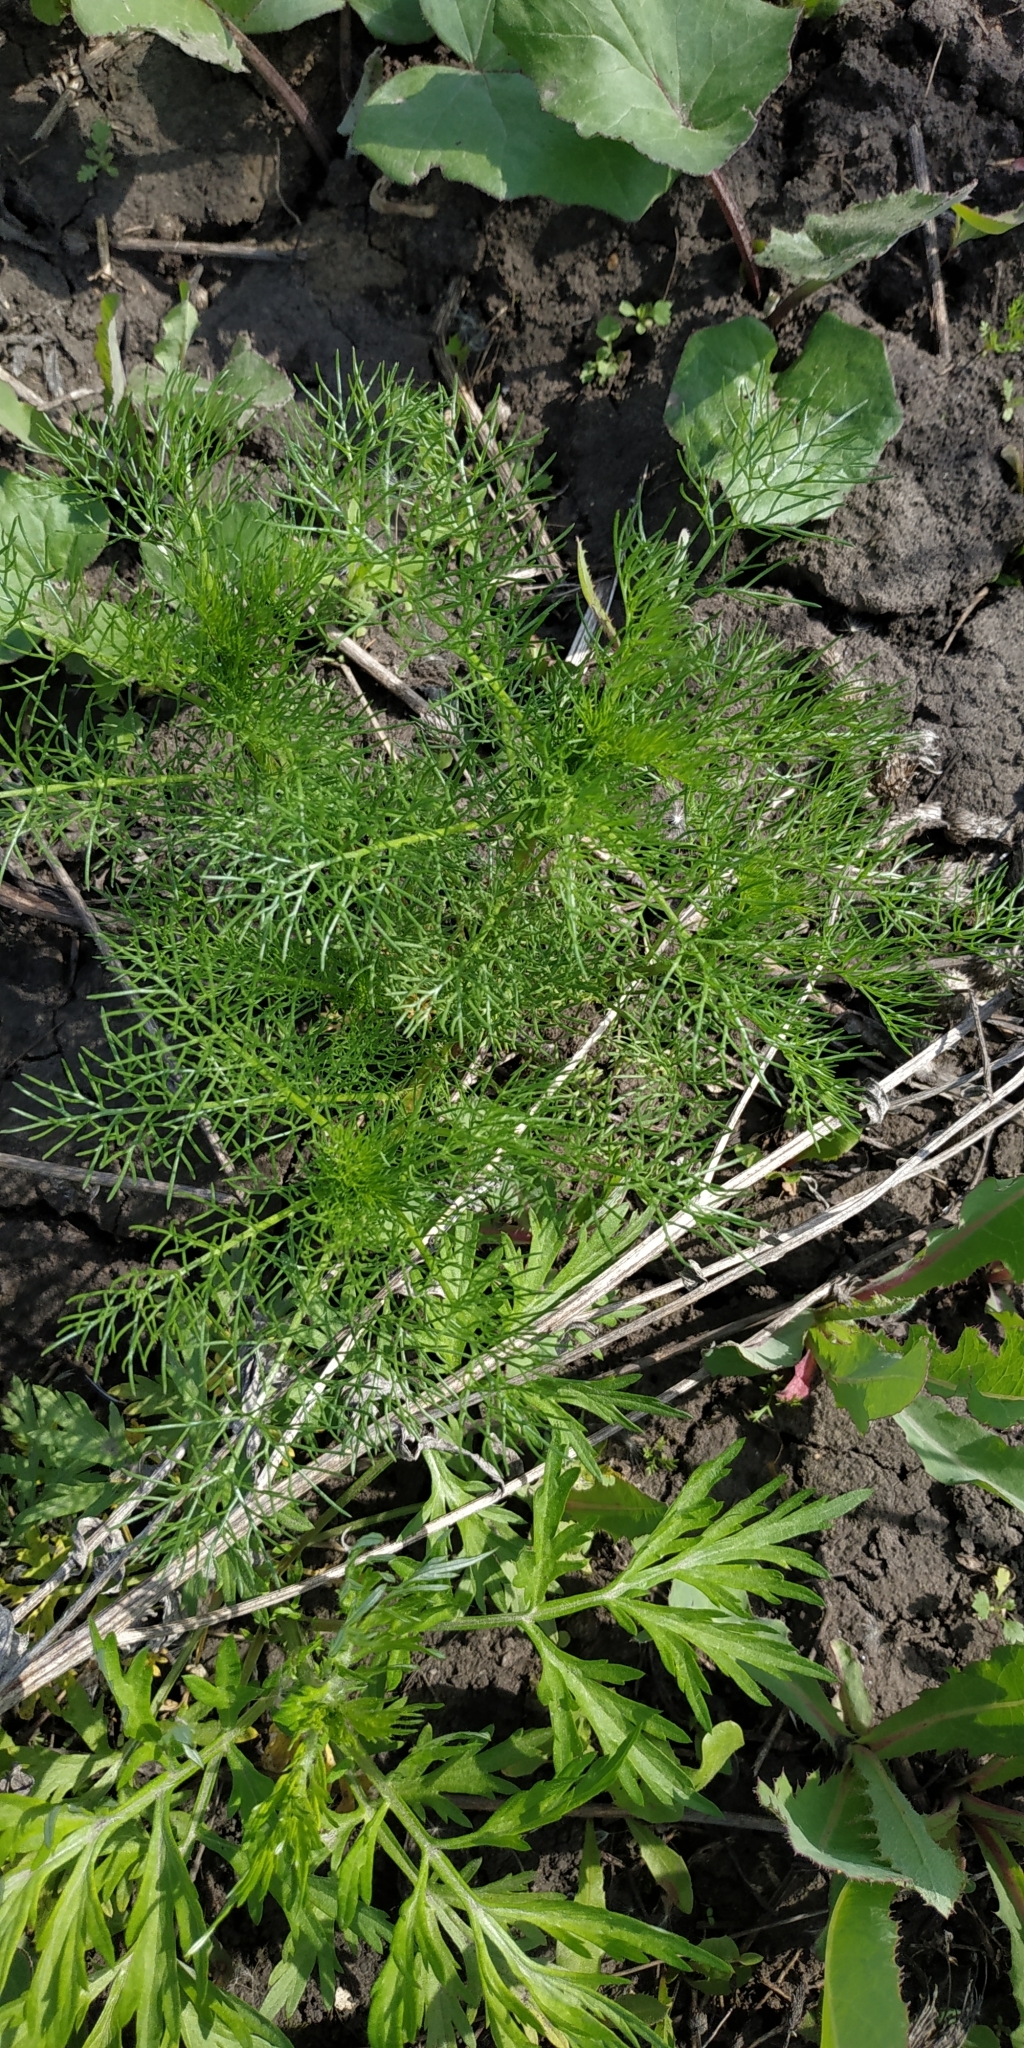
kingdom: Plantae
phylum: Tracheophyta
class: Magnoliopsida
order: Asterales
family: Asteraceae
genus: Tripleurospermum
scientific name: Tripleurospermum inodorum
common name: Scentless mayweed
